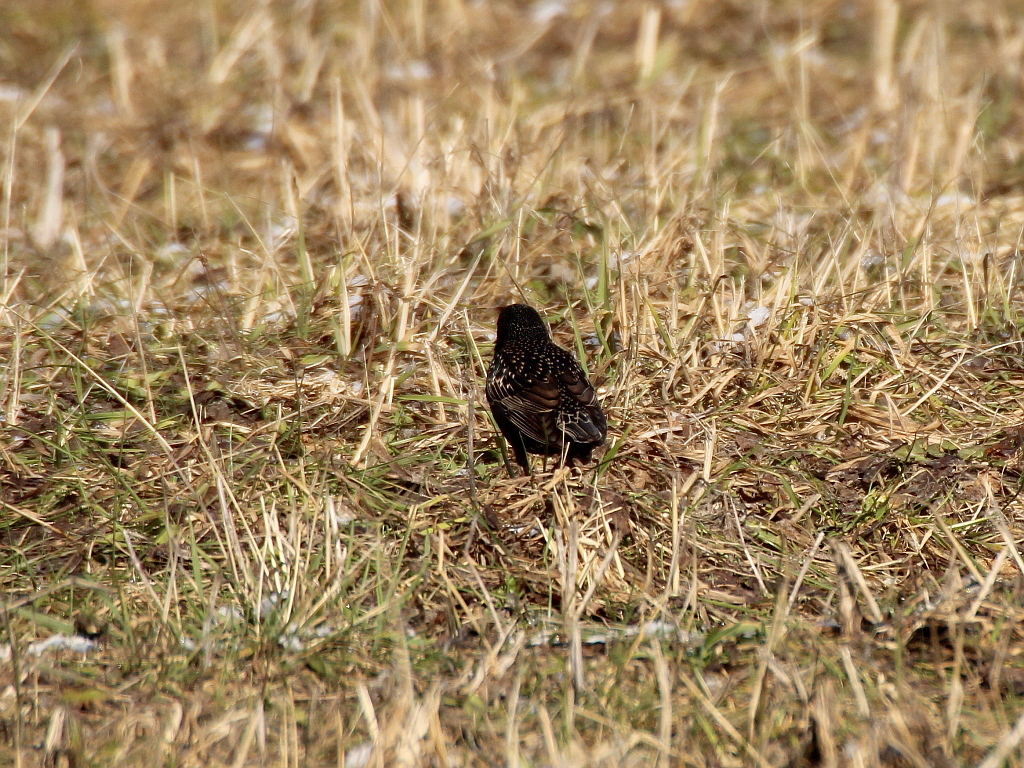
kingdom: Animalia
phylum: Chordata
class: Aves
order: Passeriformes
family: Sturnidae
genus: Sturnus
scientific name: Sturnus vulgaris
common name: Common starling
